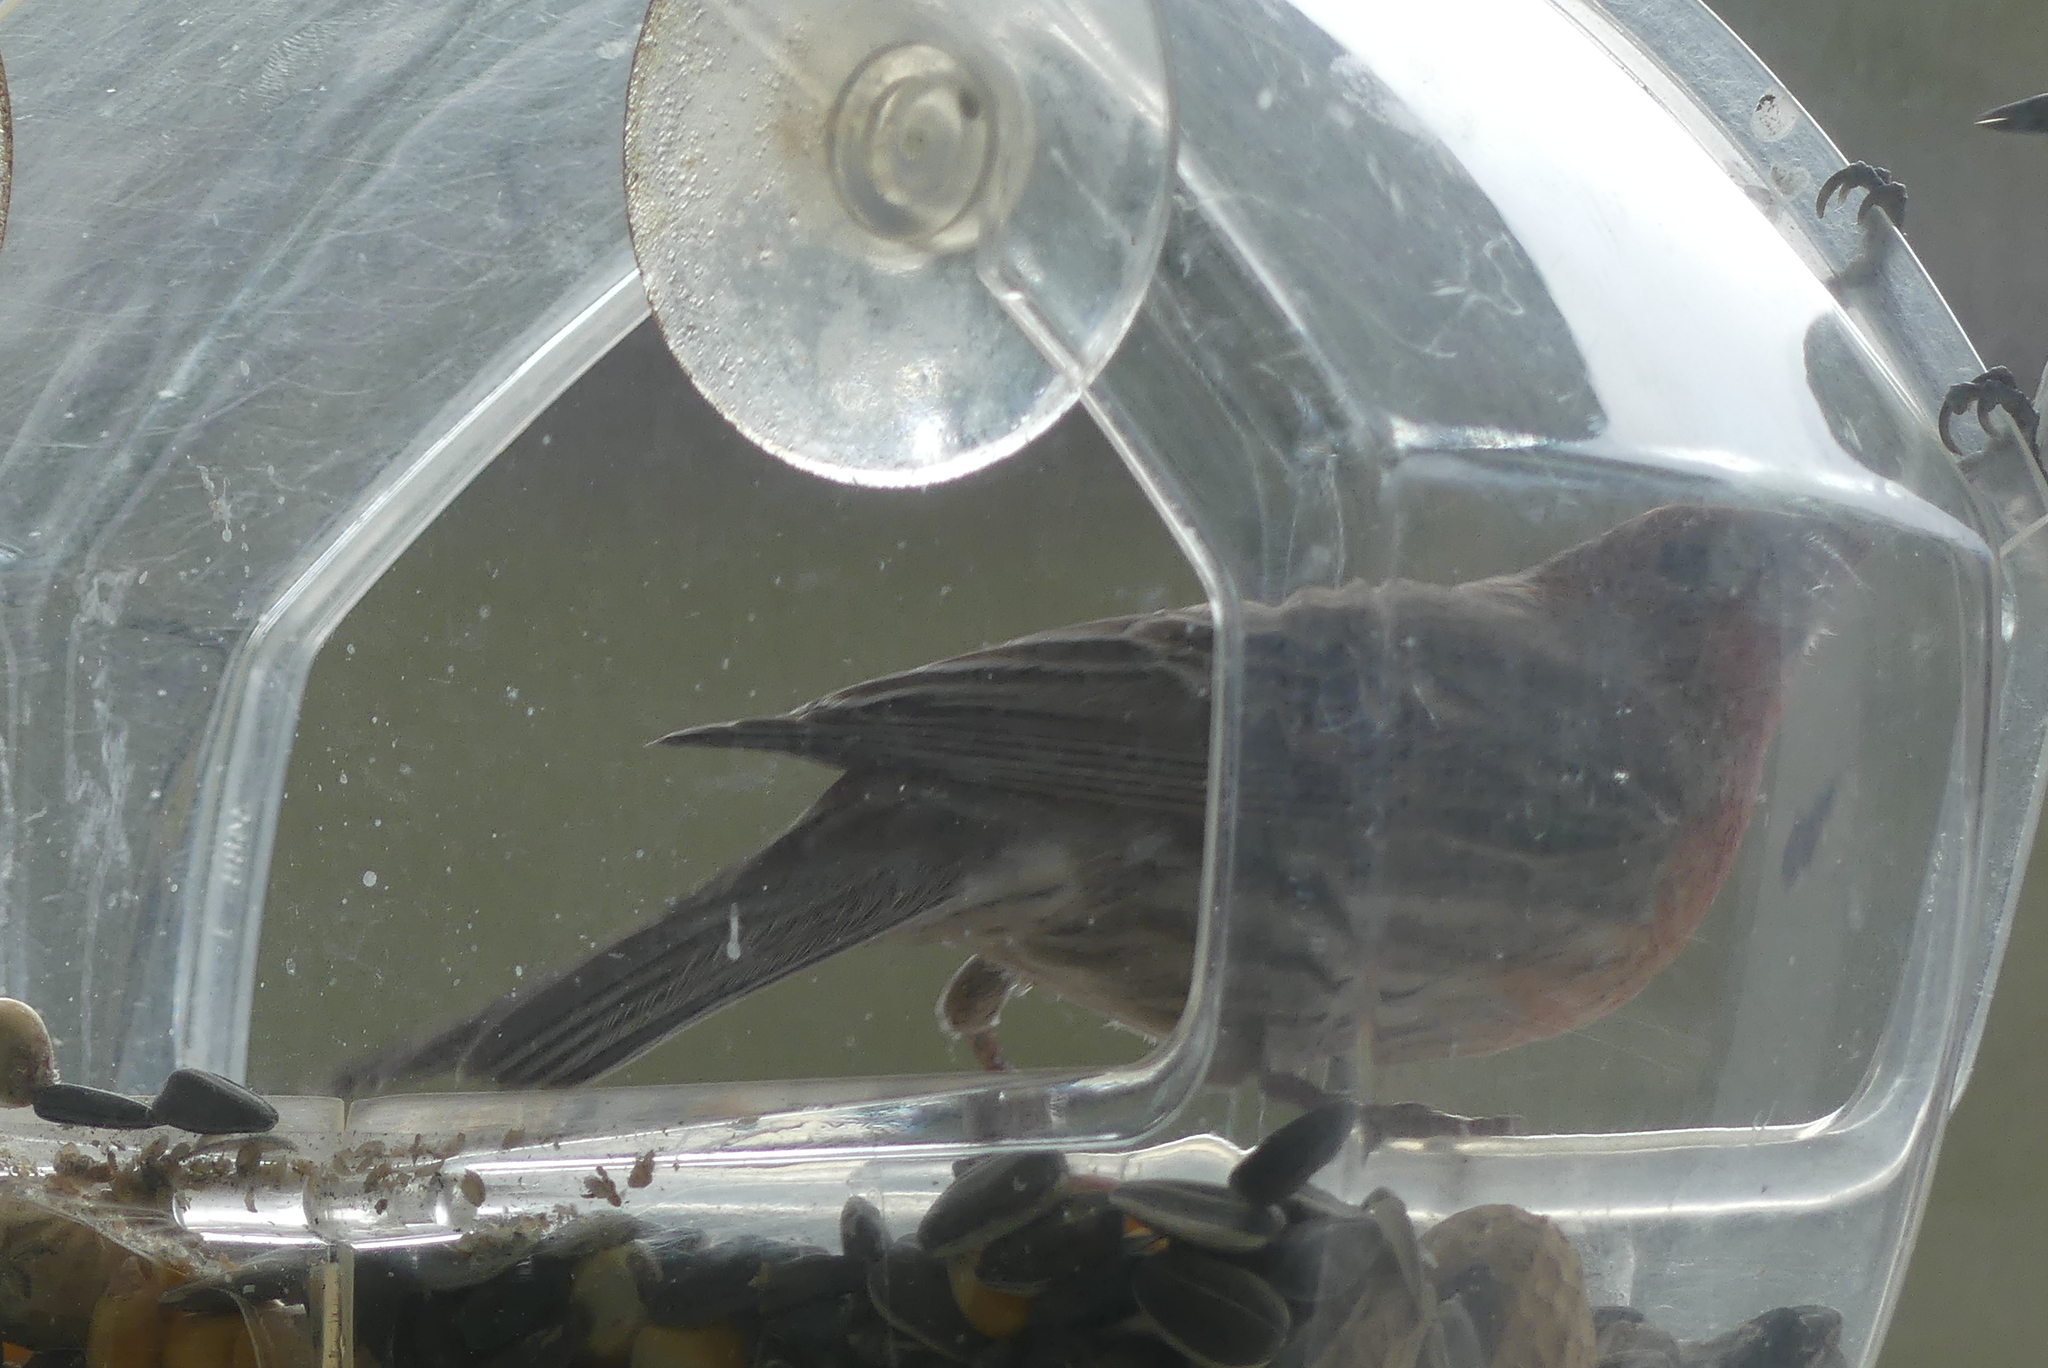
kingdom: Animalia
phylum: Chordata
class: Aves
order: Passeriformes
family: Fringillidae
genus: Haemorhous
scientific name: Haemorhous mexicanus
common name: House finch
